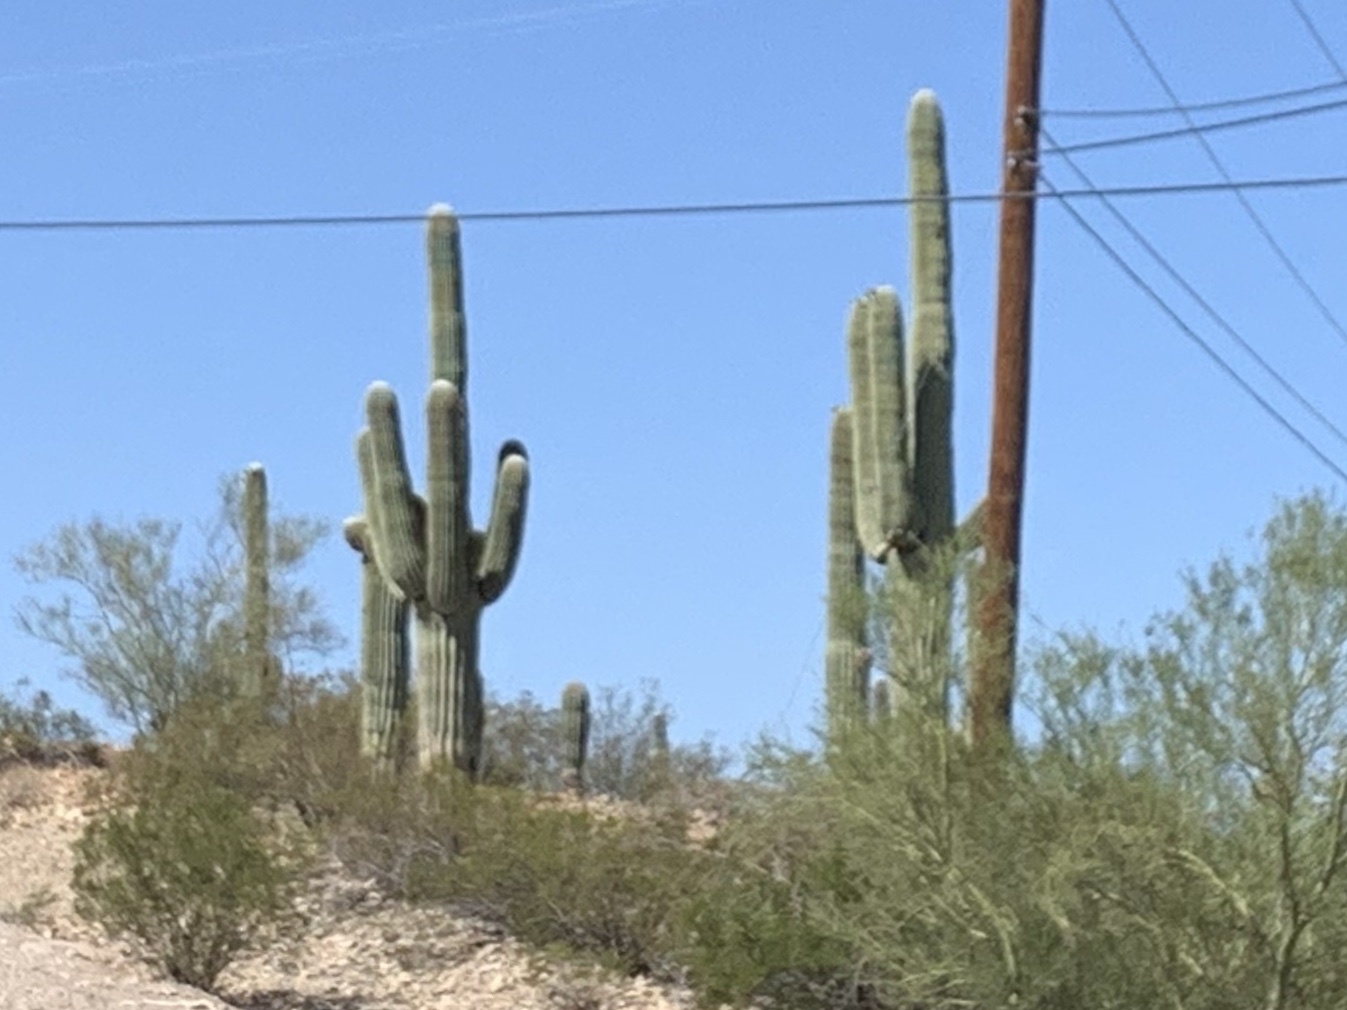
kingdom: Plantae
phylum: Tracheophyta
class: Magnoliopsida
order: Caryophyllales
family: Cactaceae
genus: Carnegiea
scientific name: Carnegiea gigantea
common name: Saguaro
